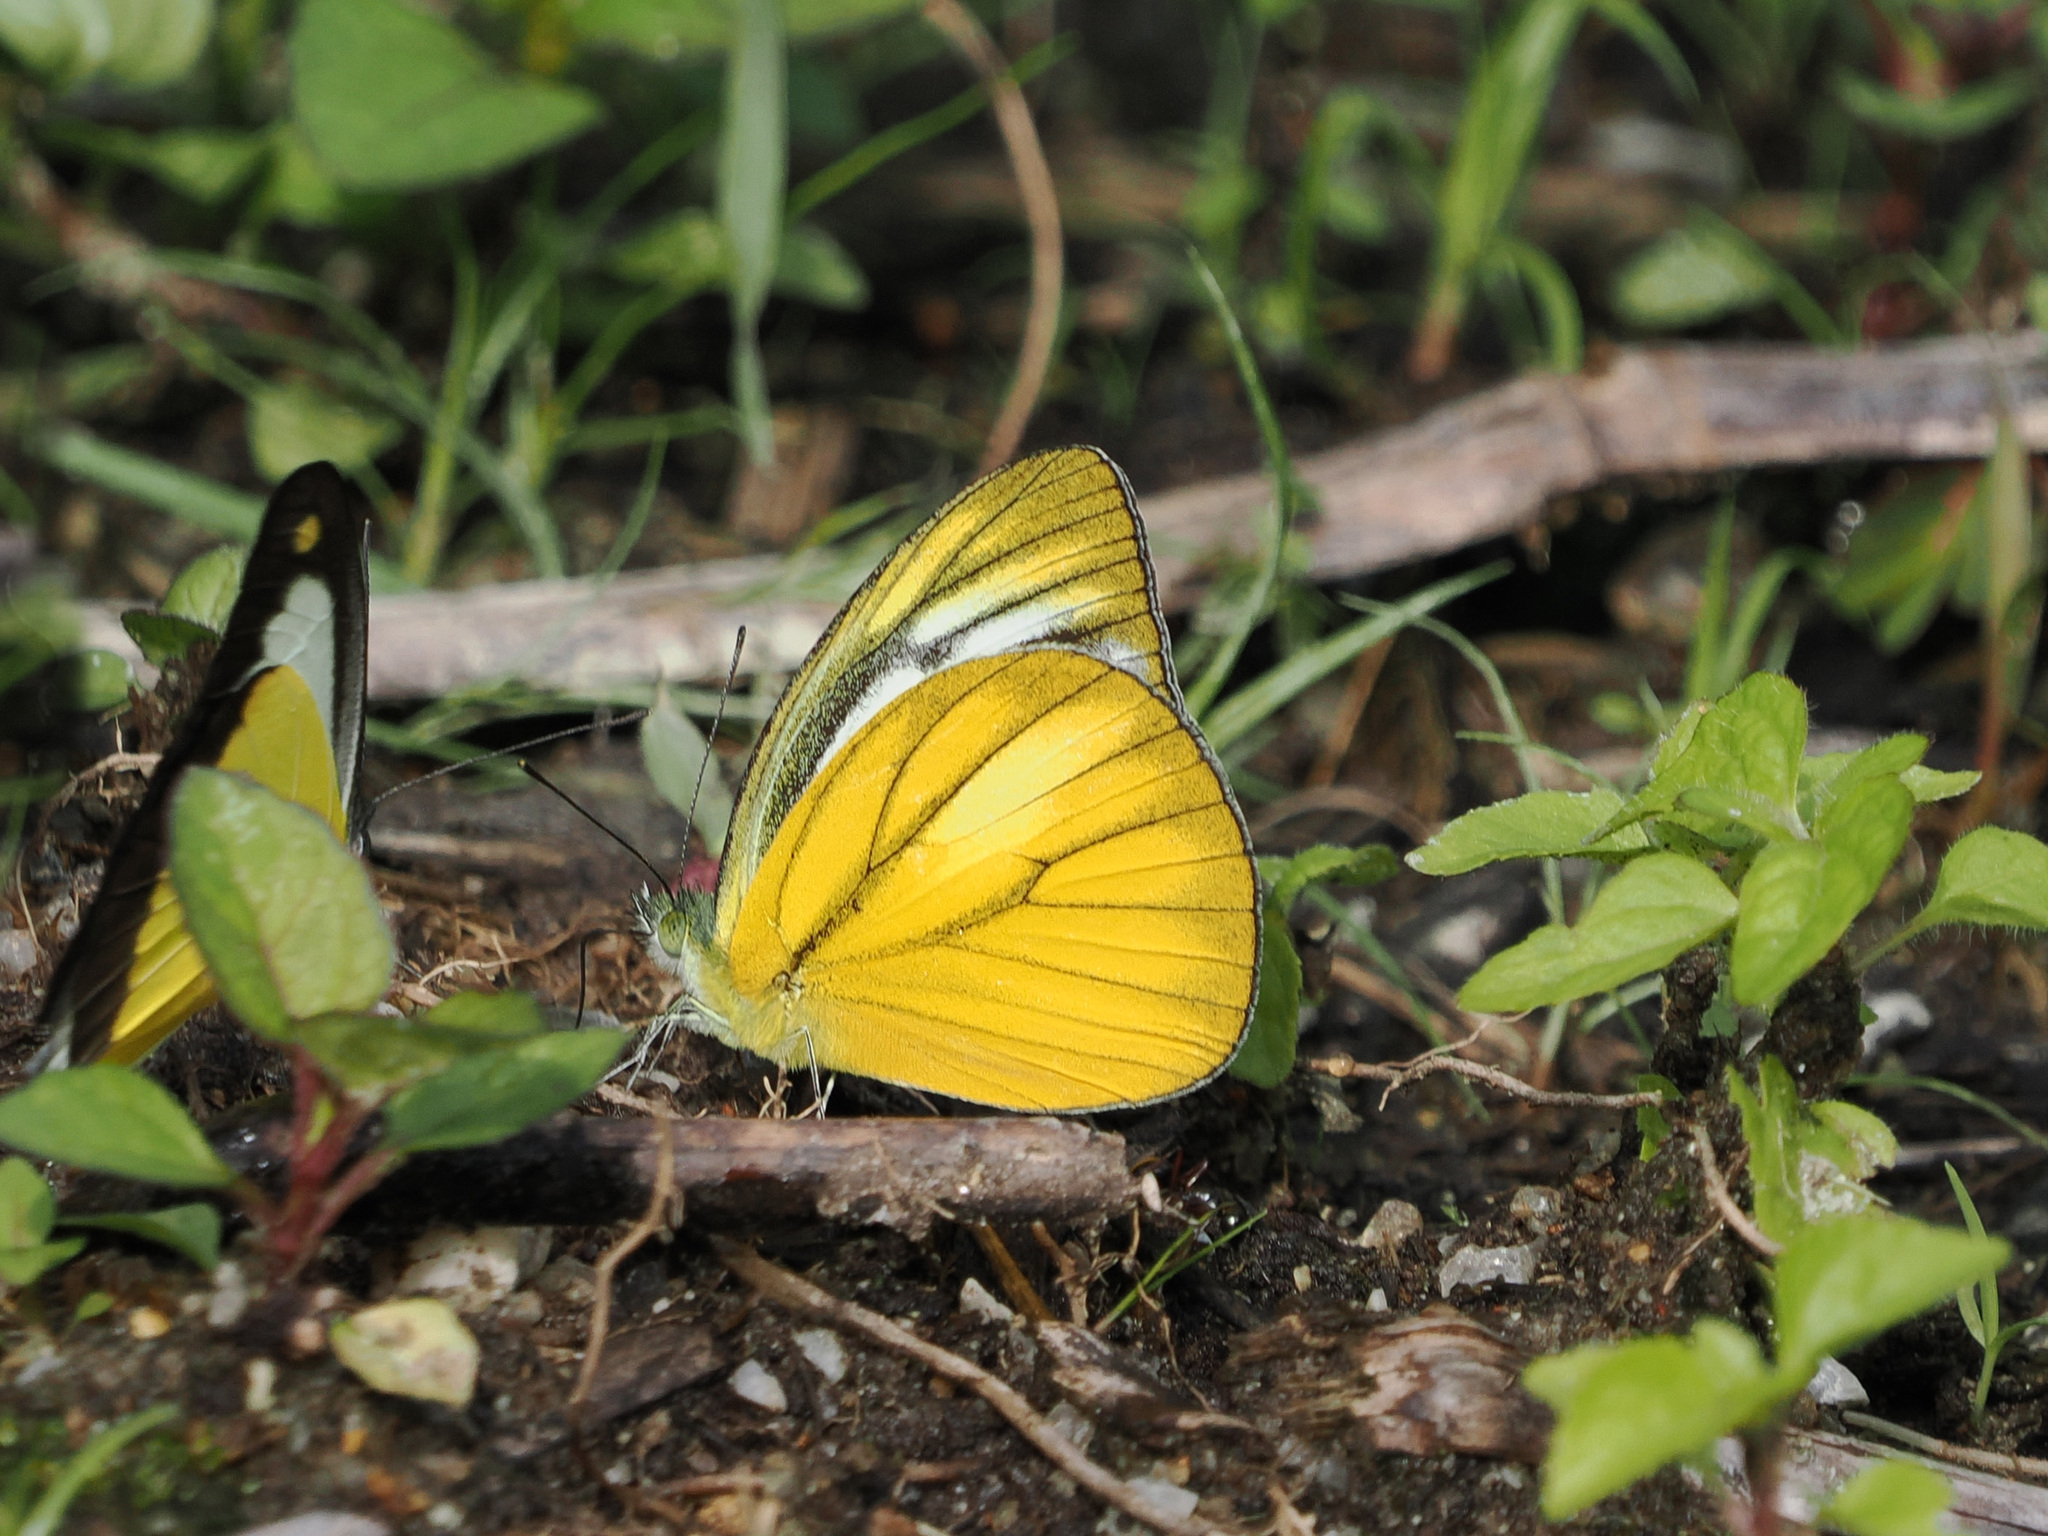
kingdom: Animalia
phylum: Arthropoda
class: Insecta
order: Lepidoptera
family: Pieridae
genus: Cepora
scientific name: Cepora nadina
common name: Lesser gull
